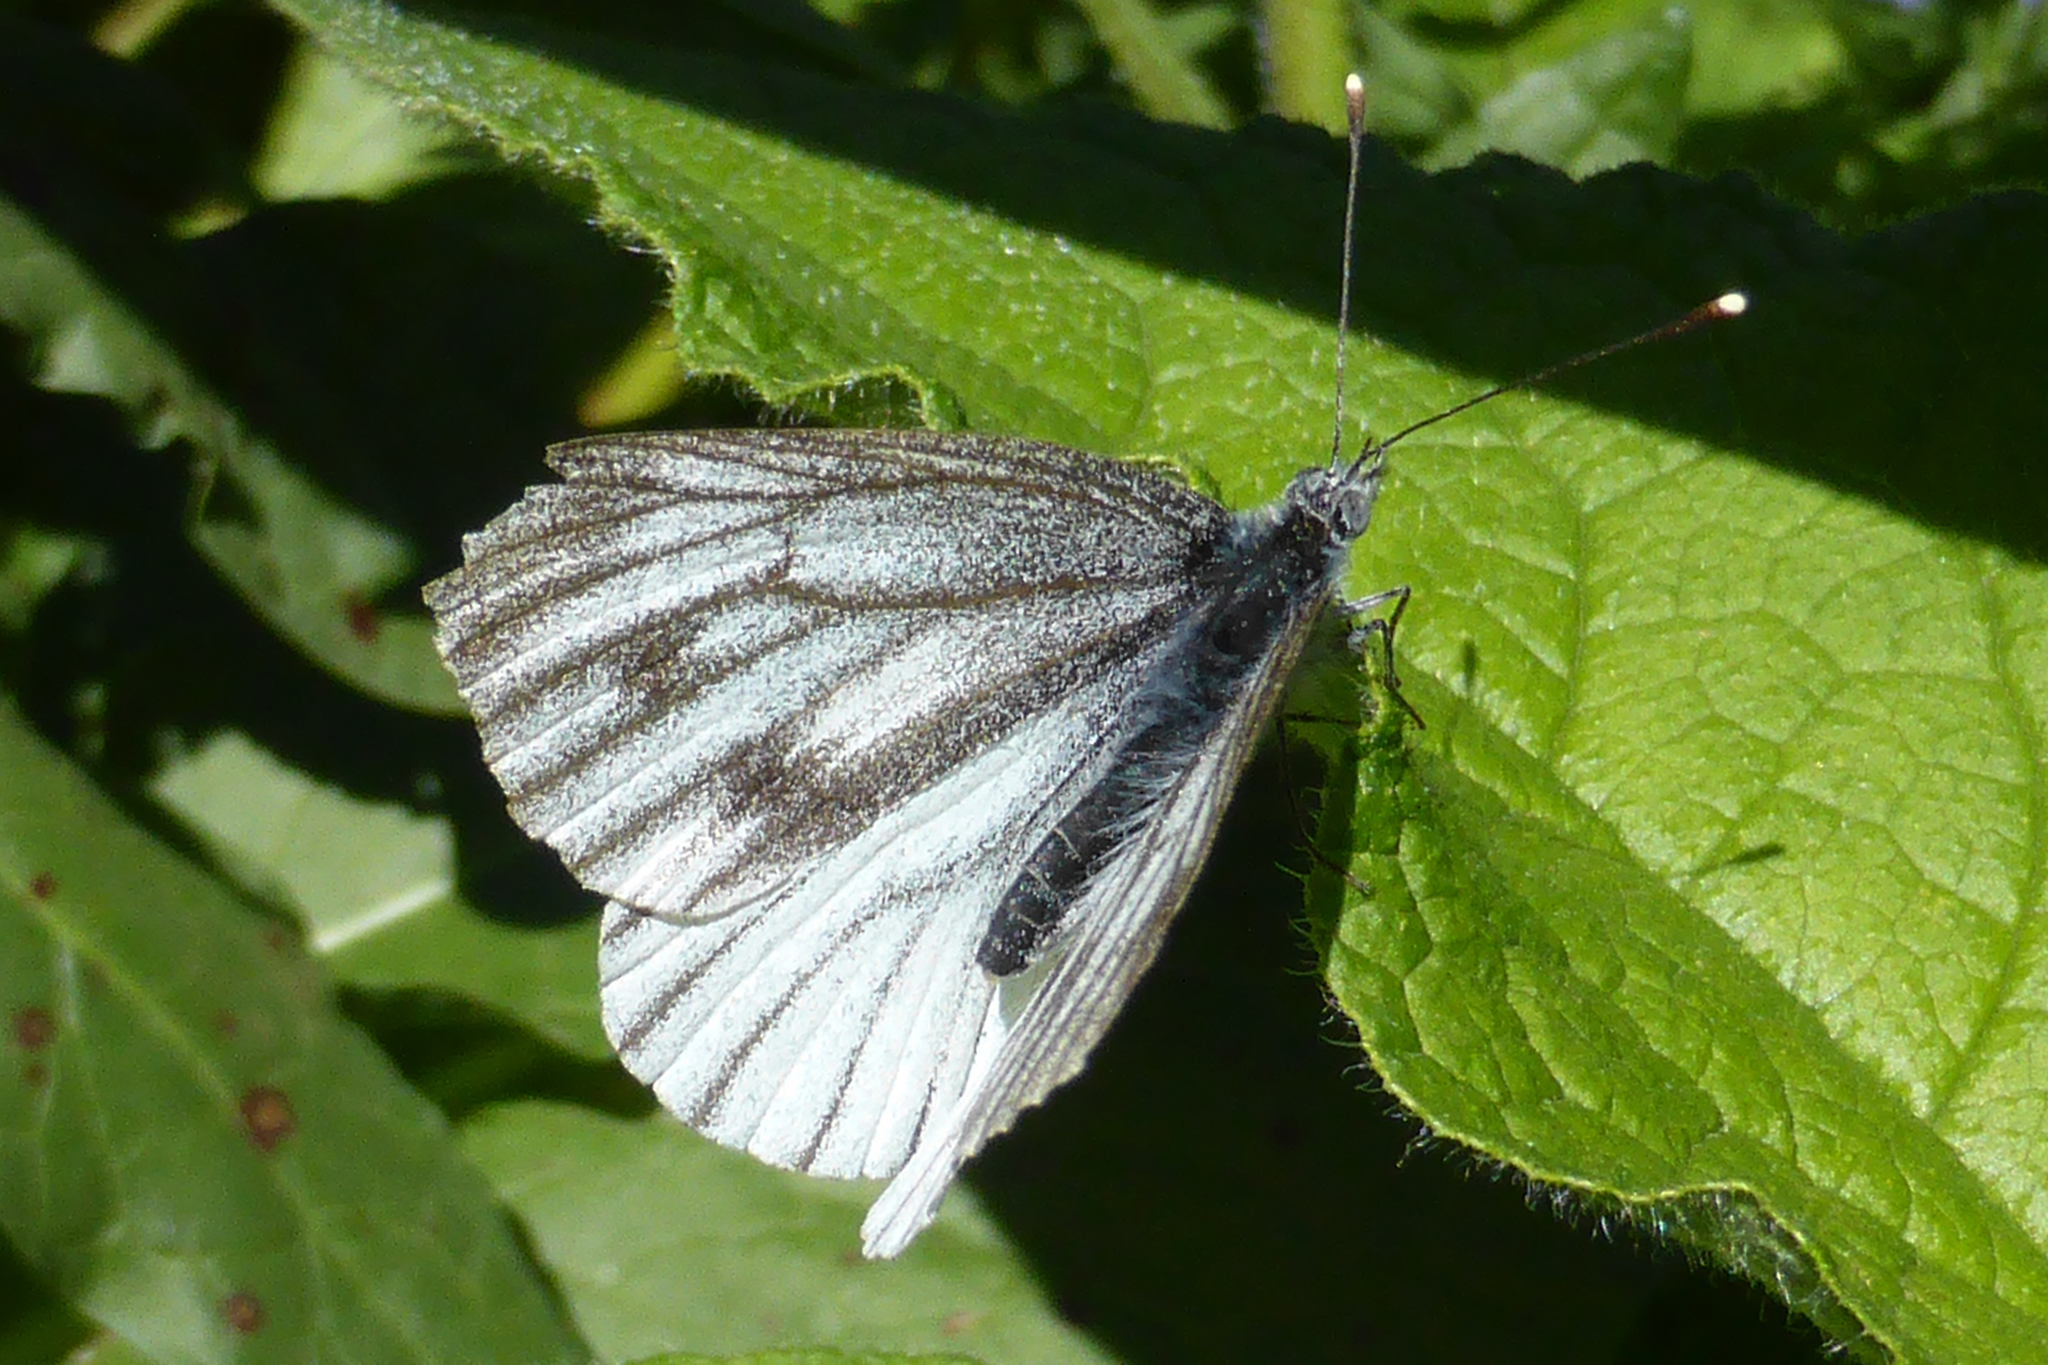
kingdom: Animalia
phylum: Arthropoda
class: Insecta
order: Lepidoptera
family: Pieridae
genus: Pieris
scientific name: Pieris napi
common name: Green-veined white
